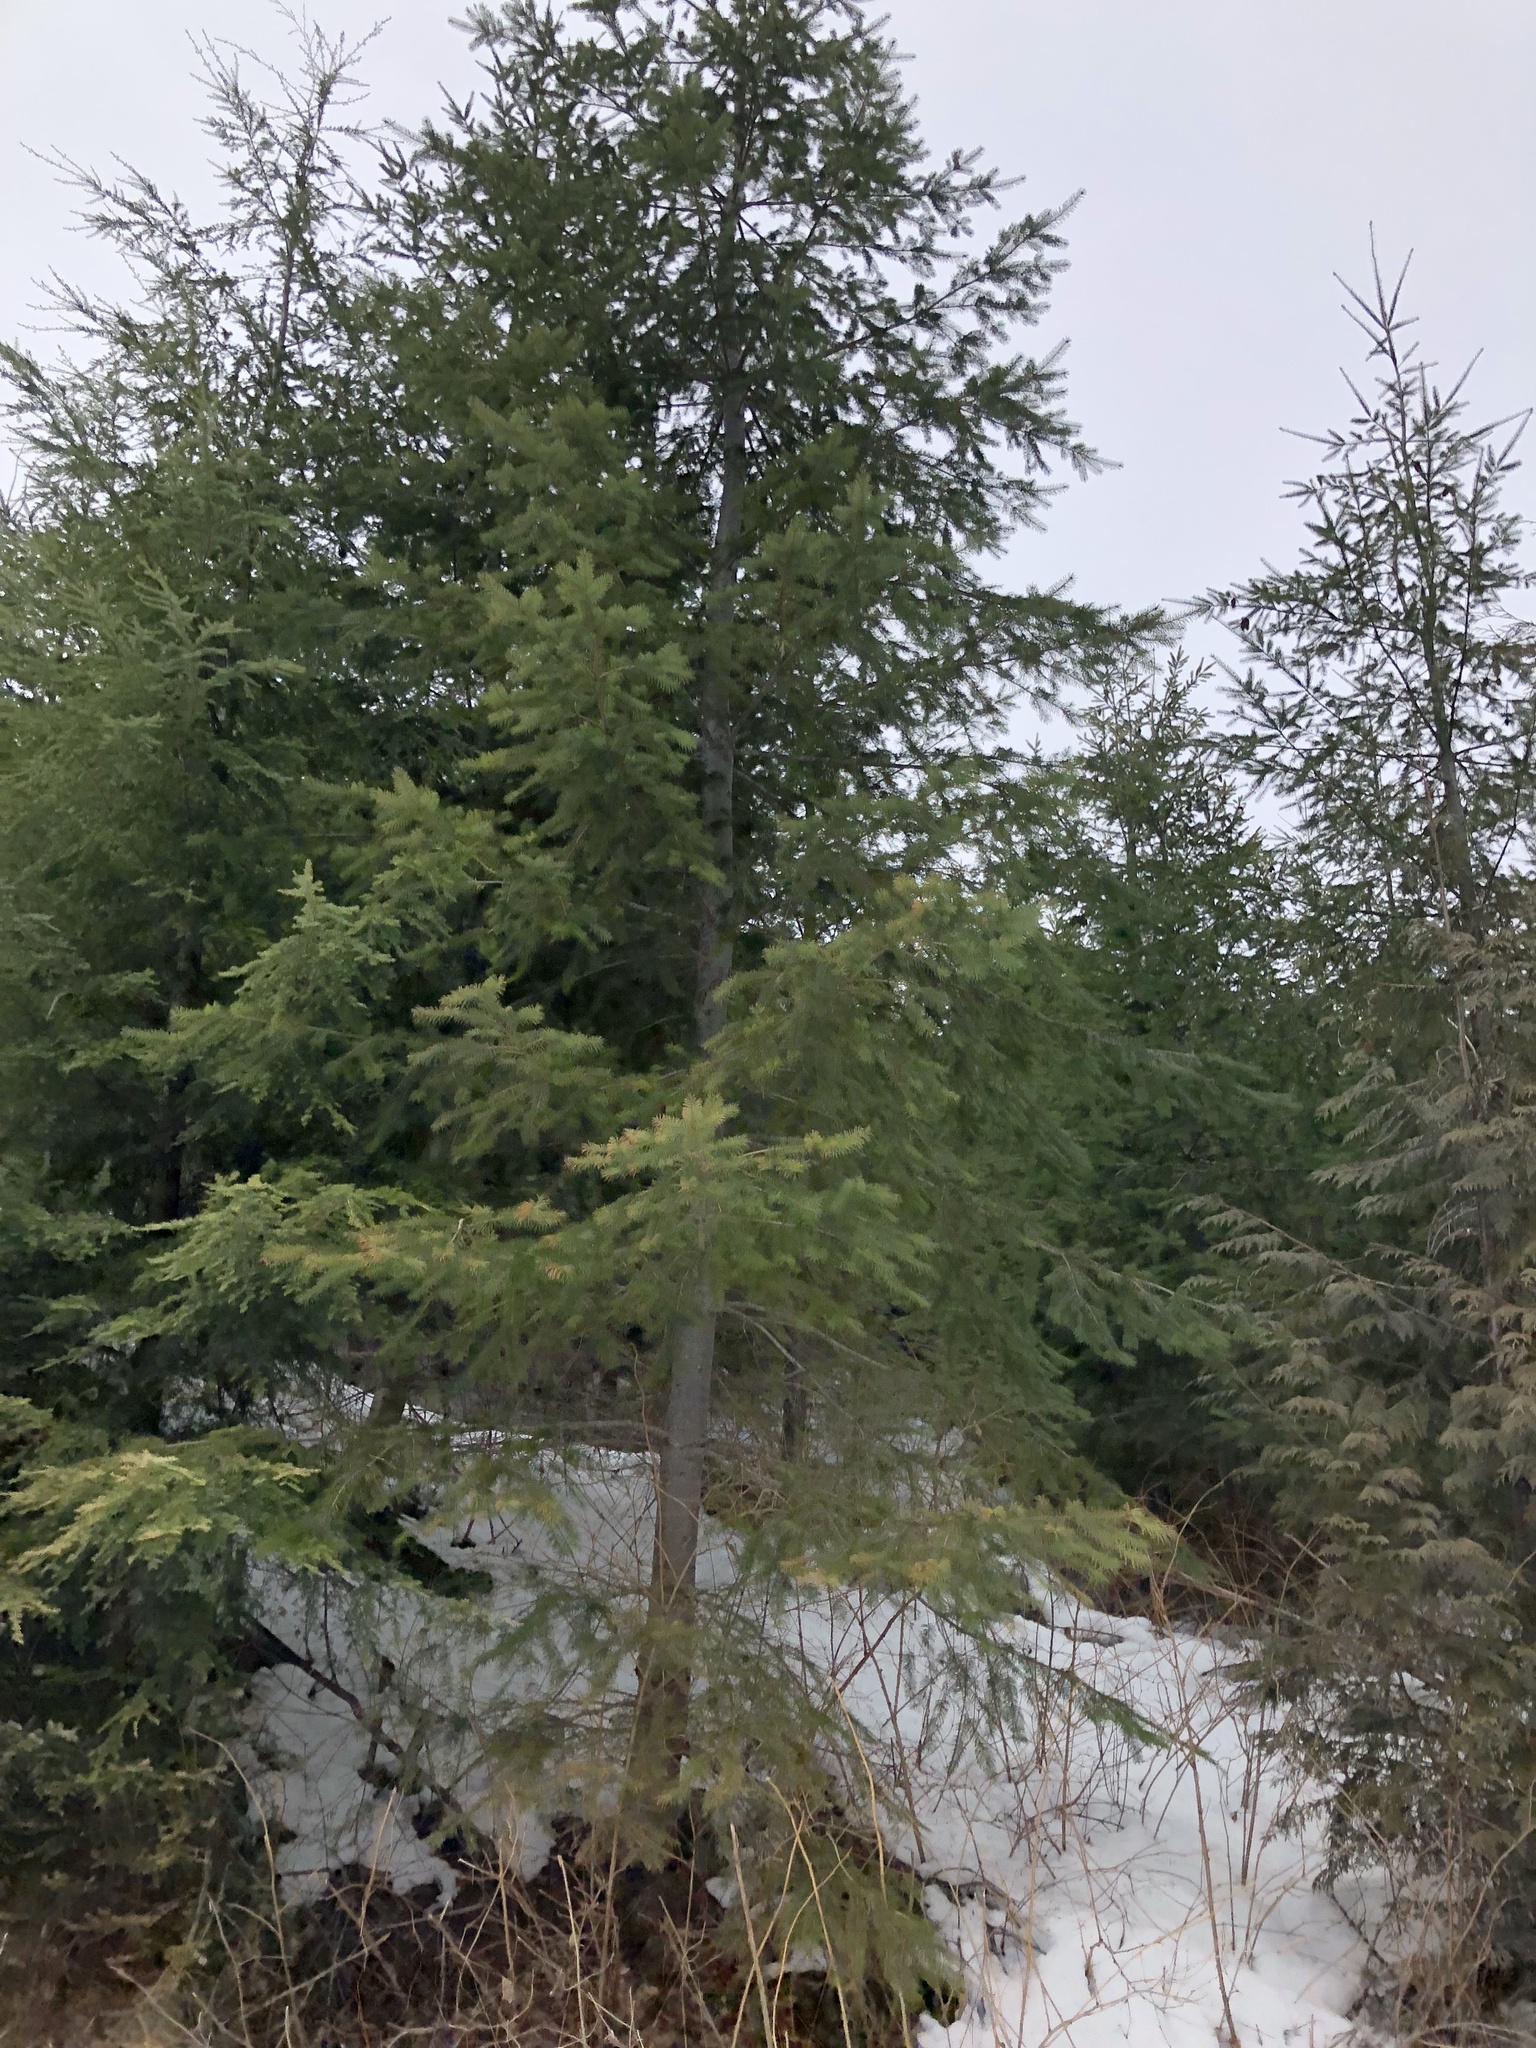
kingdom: Plantae
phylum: Tracheophyta
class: Pinopsida
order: Pinales
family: Pinaceae
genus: Pseudotsuga
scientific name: Pseudotsuga menziesii
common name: Douglas fir
